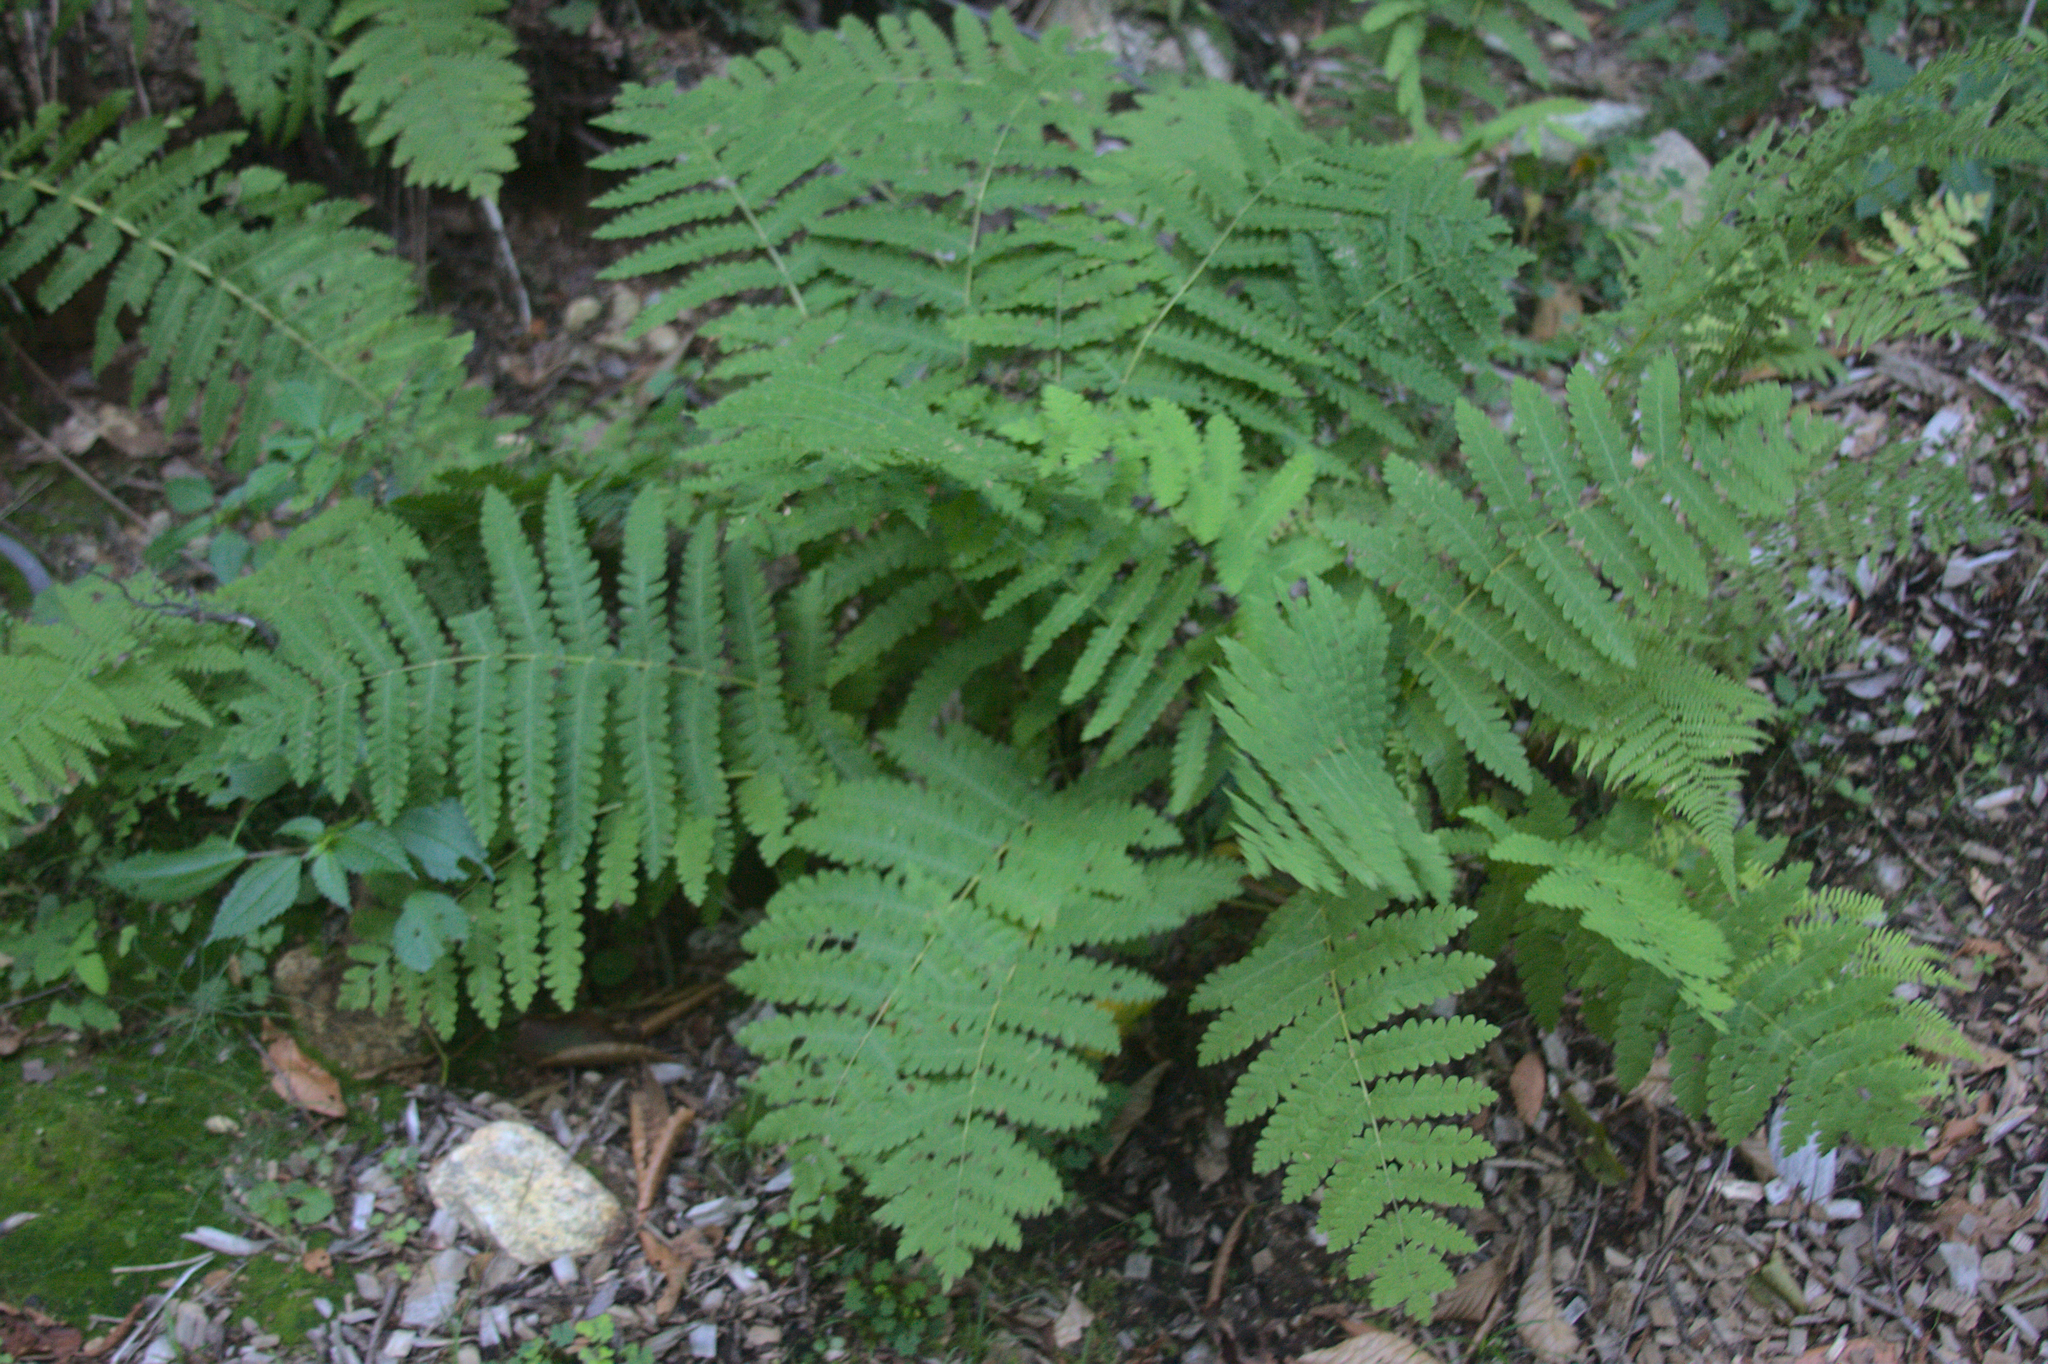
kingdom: Plantae
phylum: Tracheophyta
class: Polypodiopsida
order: Osmundales
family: Osmundaceae
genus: Claytosmunda
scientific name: Claytosmunda claytoniana
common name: Clayton's fern
